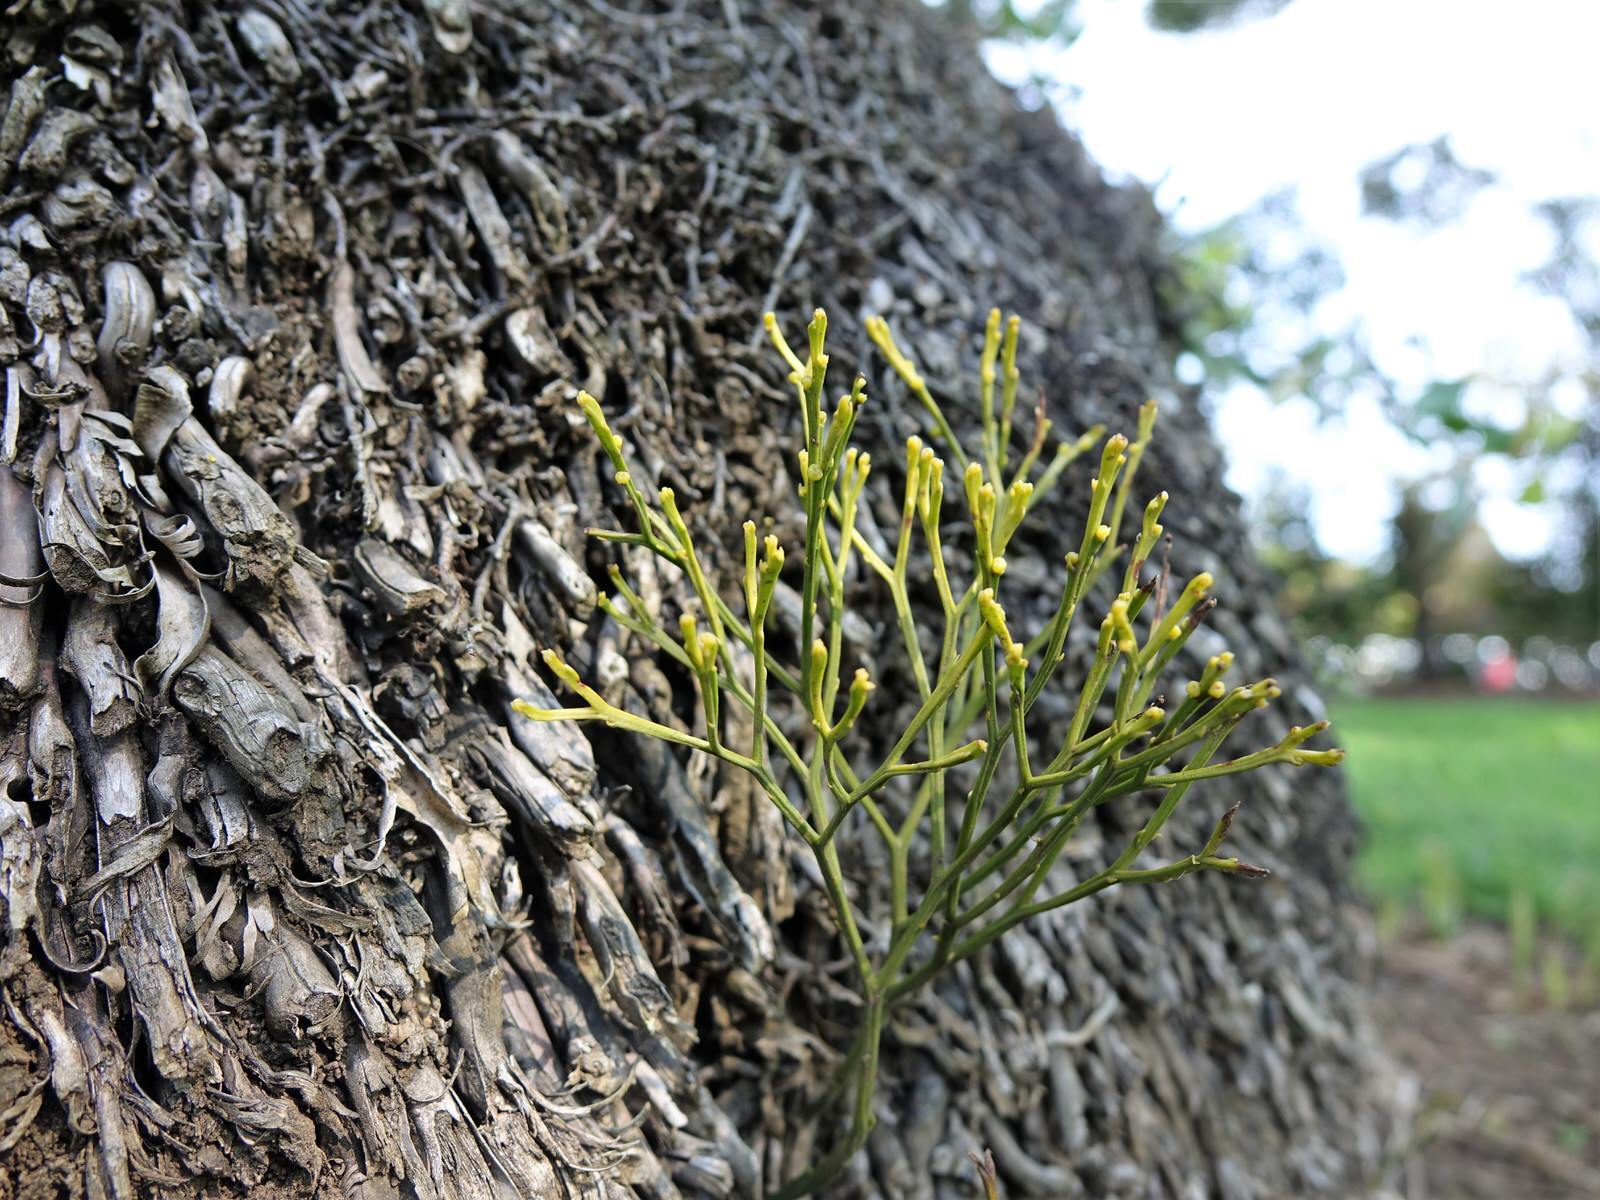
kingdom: Plantae
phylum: Tracheophyta
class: Polypodiopsida
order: Psilotales
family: Psilotaceae
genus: Psilotum
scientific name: Psilotum nudum
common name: Skeleton fork fern
